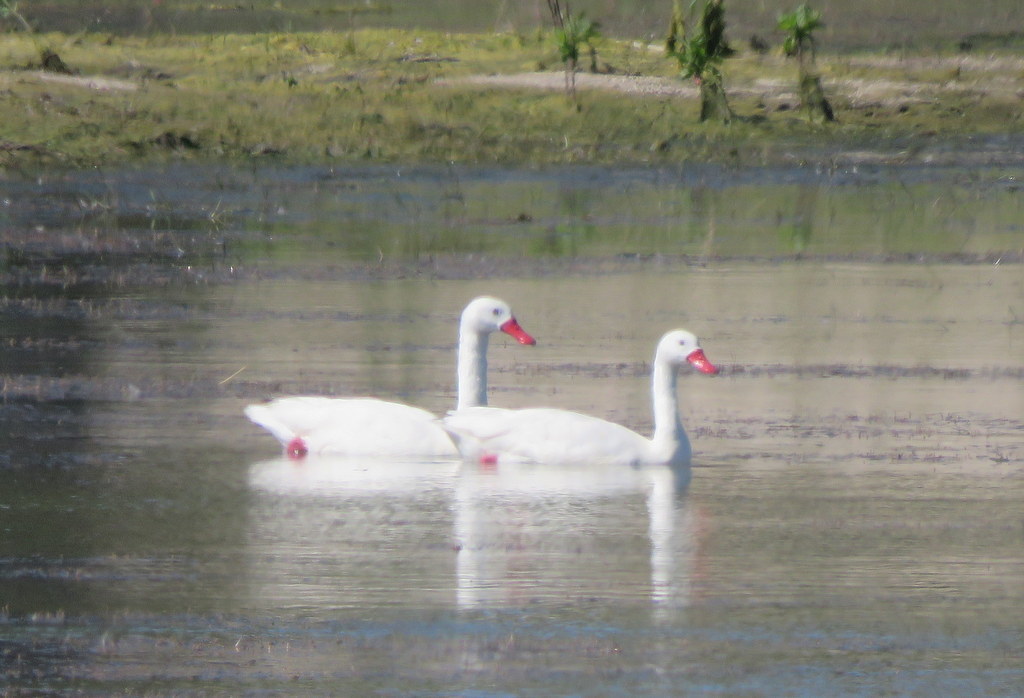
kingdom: Animalia
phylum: Chordata
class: Aves
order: Anseriformes
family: Anatidae
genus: Coscoroba
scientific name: Coscoroba coscoroba
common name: Coscoroba swan
